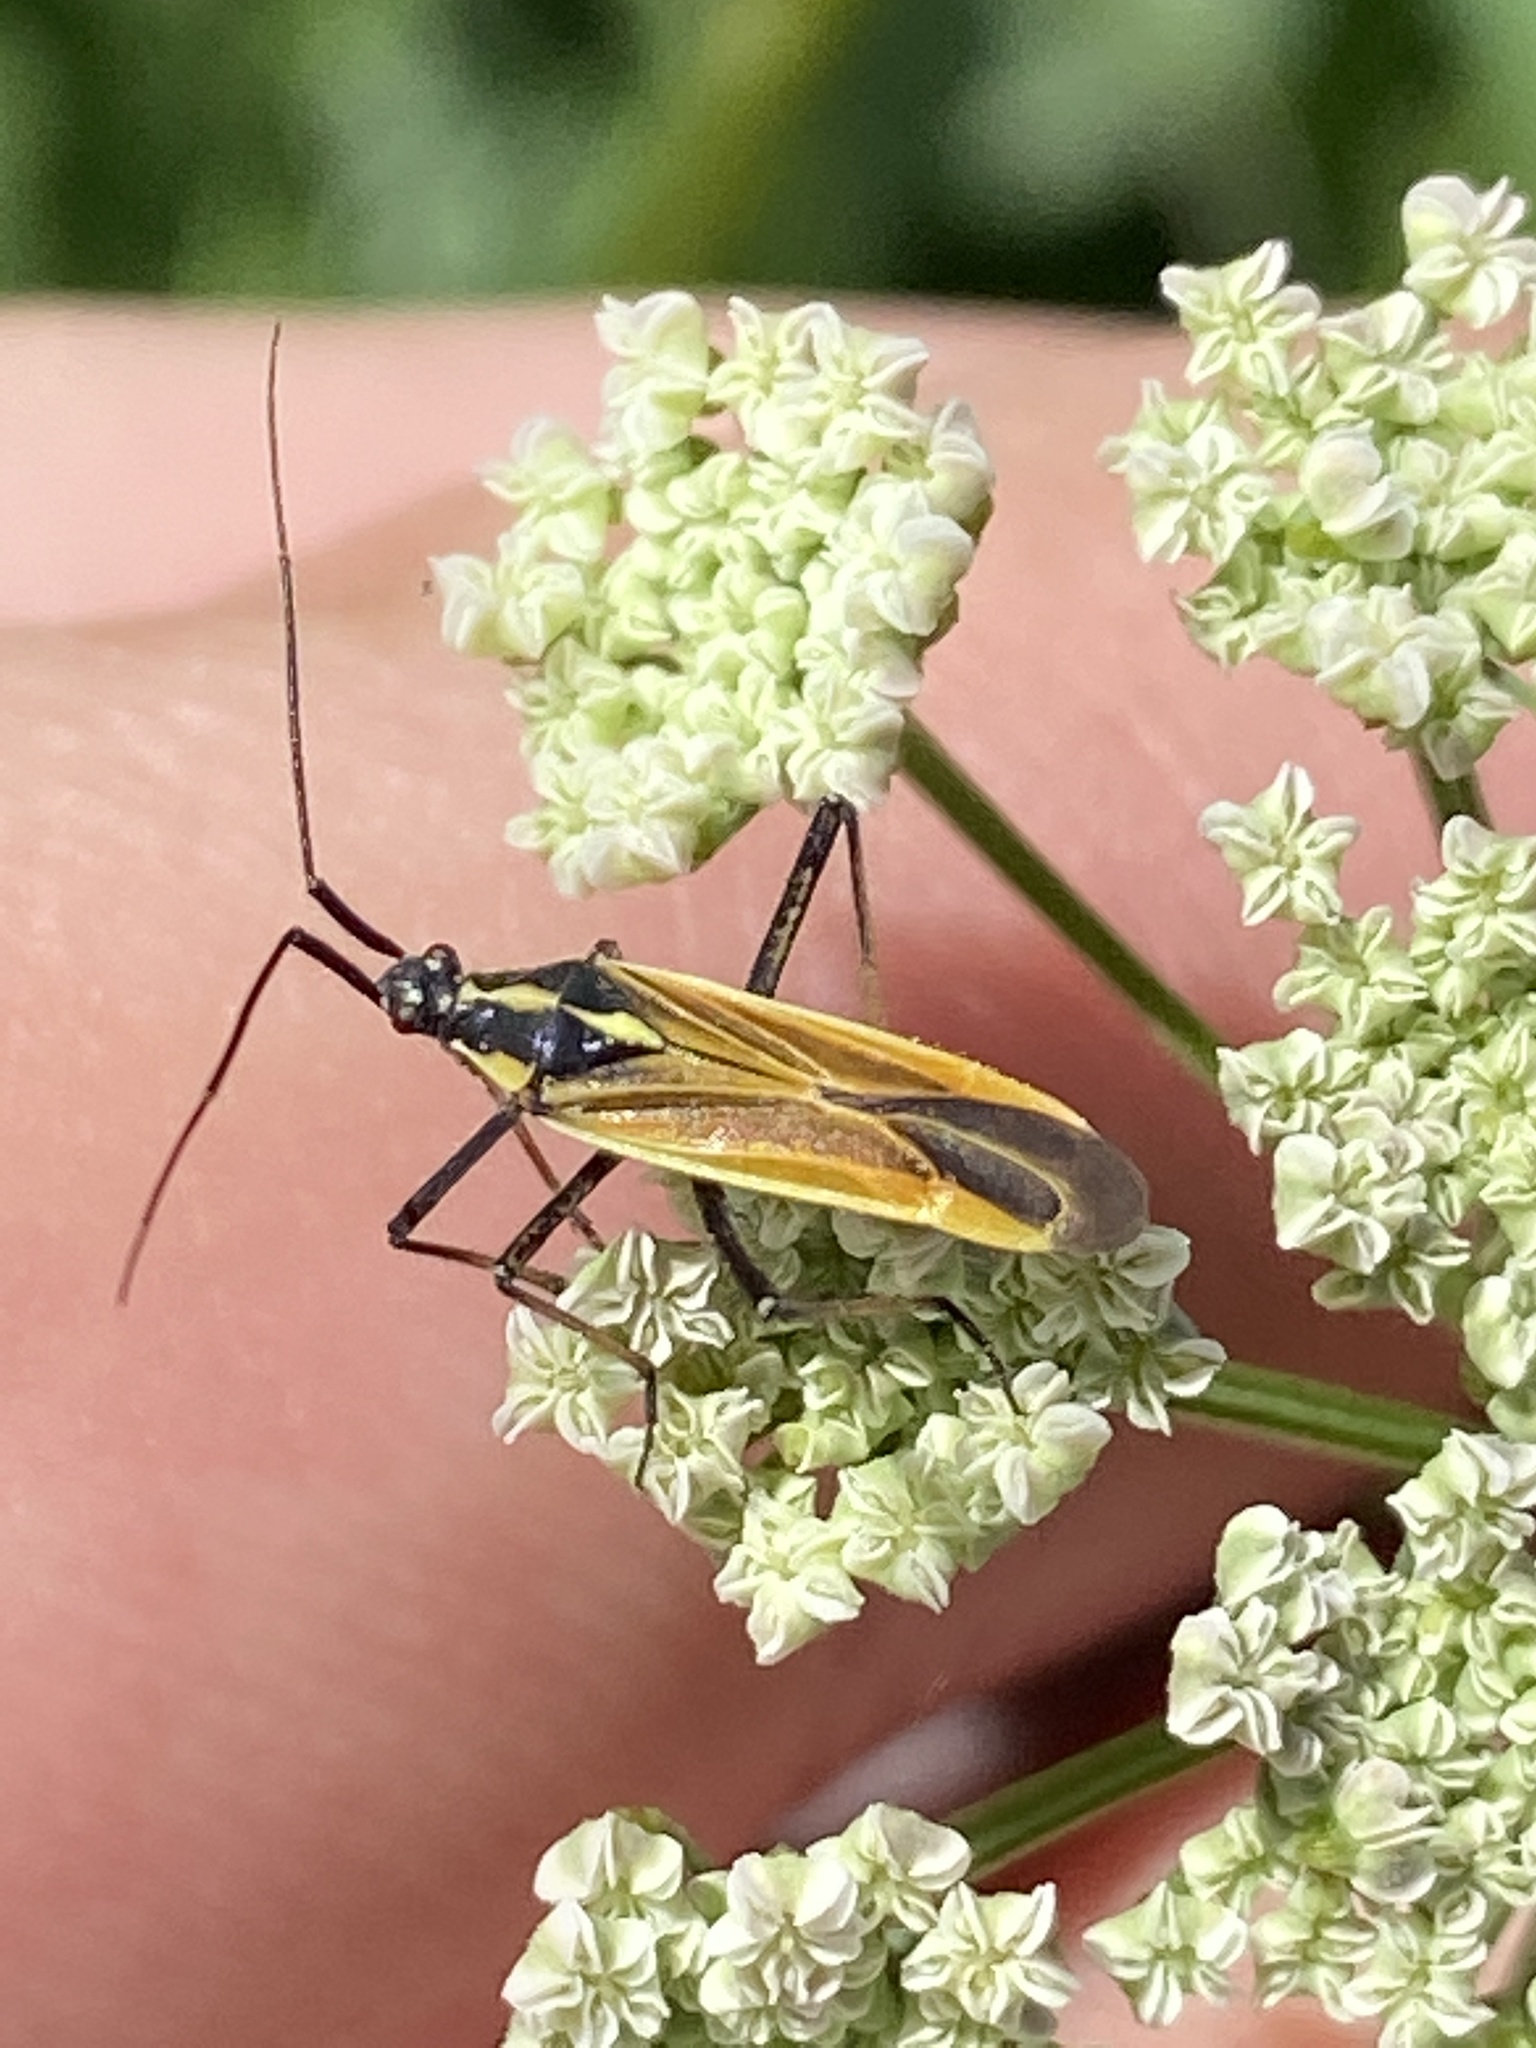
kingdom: Animalia
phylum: Arthropoda
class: Insecta
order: Hemiptera
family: Miridae
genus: Leptopterna
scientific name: Leptopterna dolabrata
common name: Meadow plant bug
